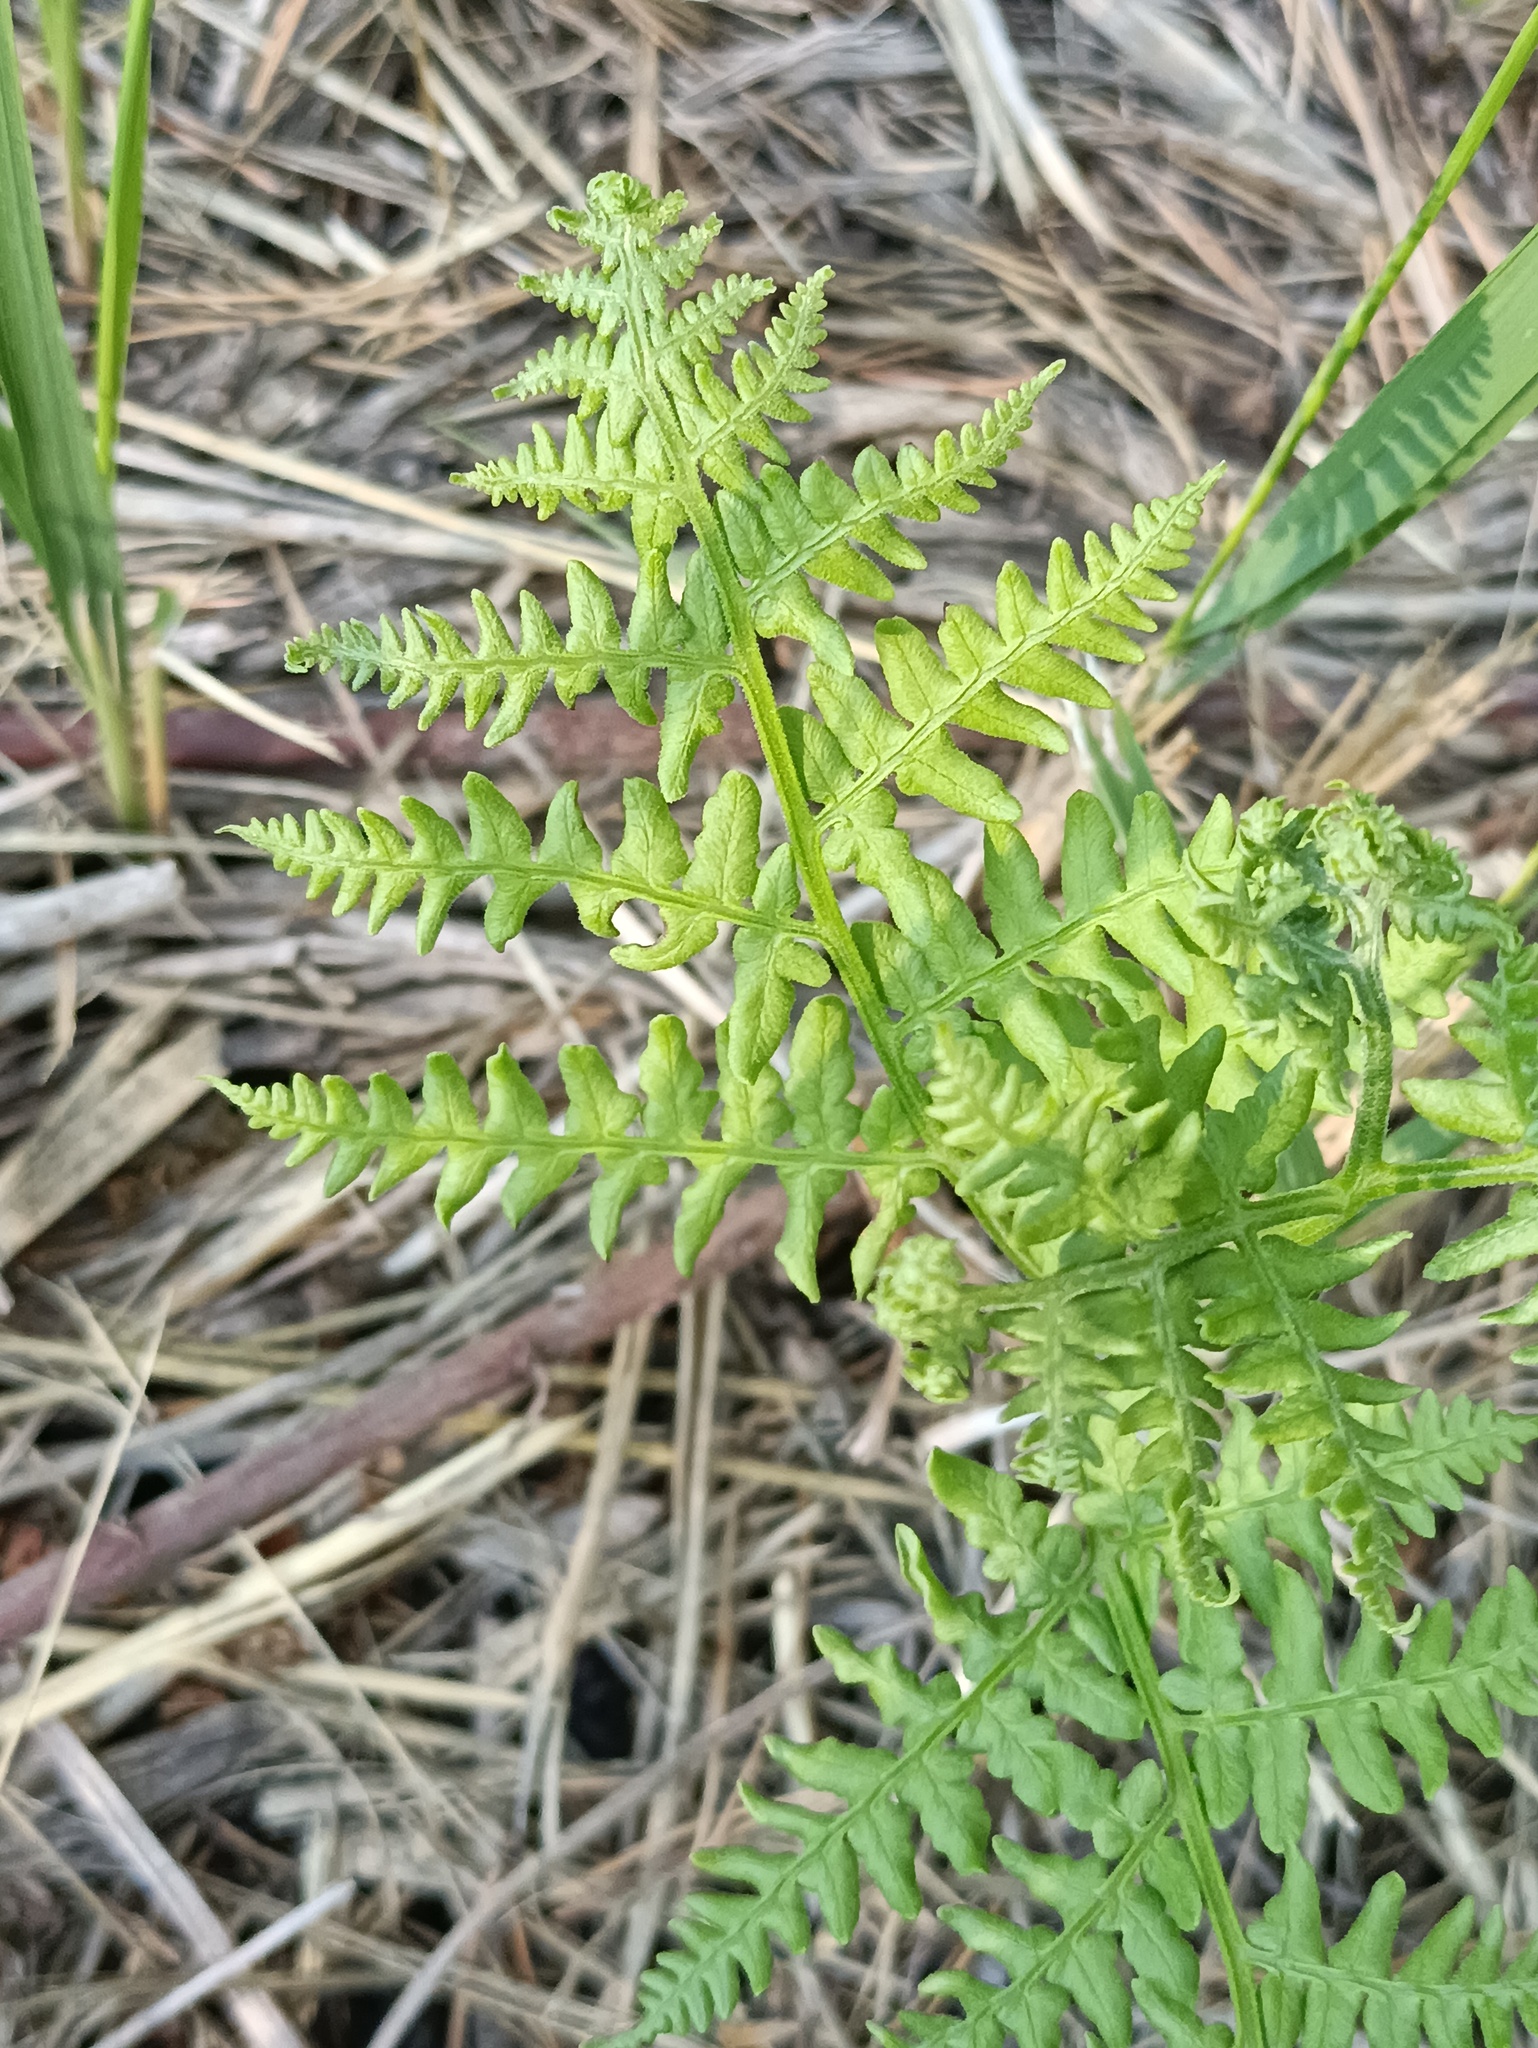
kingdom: Plantae
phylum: Tracheophyta
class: Polypodiopsida
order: Polypodiales
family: Dennstaedtiaceae
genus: Pteridium
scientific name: Pteridium aquilinum
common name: Bracken
